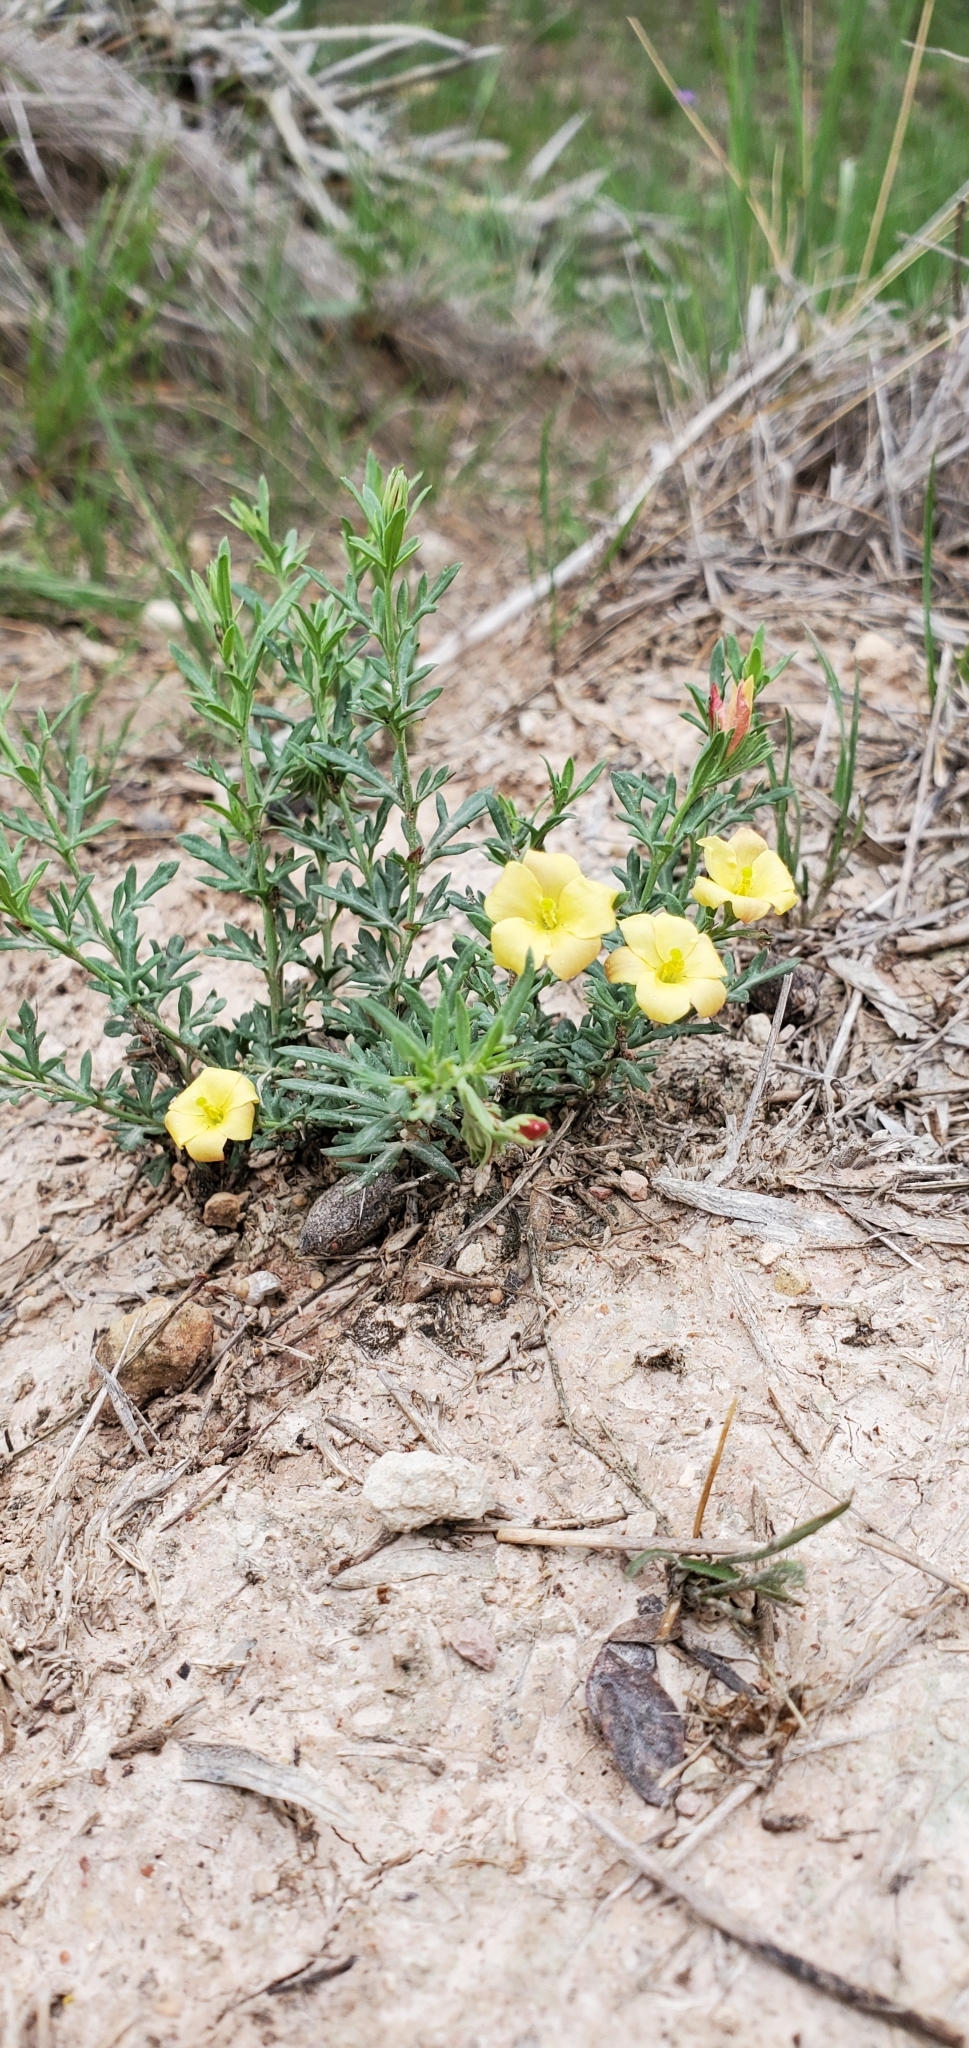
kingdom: Plantae
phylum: Tracheophyta
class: Magnoliopsida
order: Lamiales
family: Oleaceae
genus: Menodora
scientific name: Menodora heterophylla
